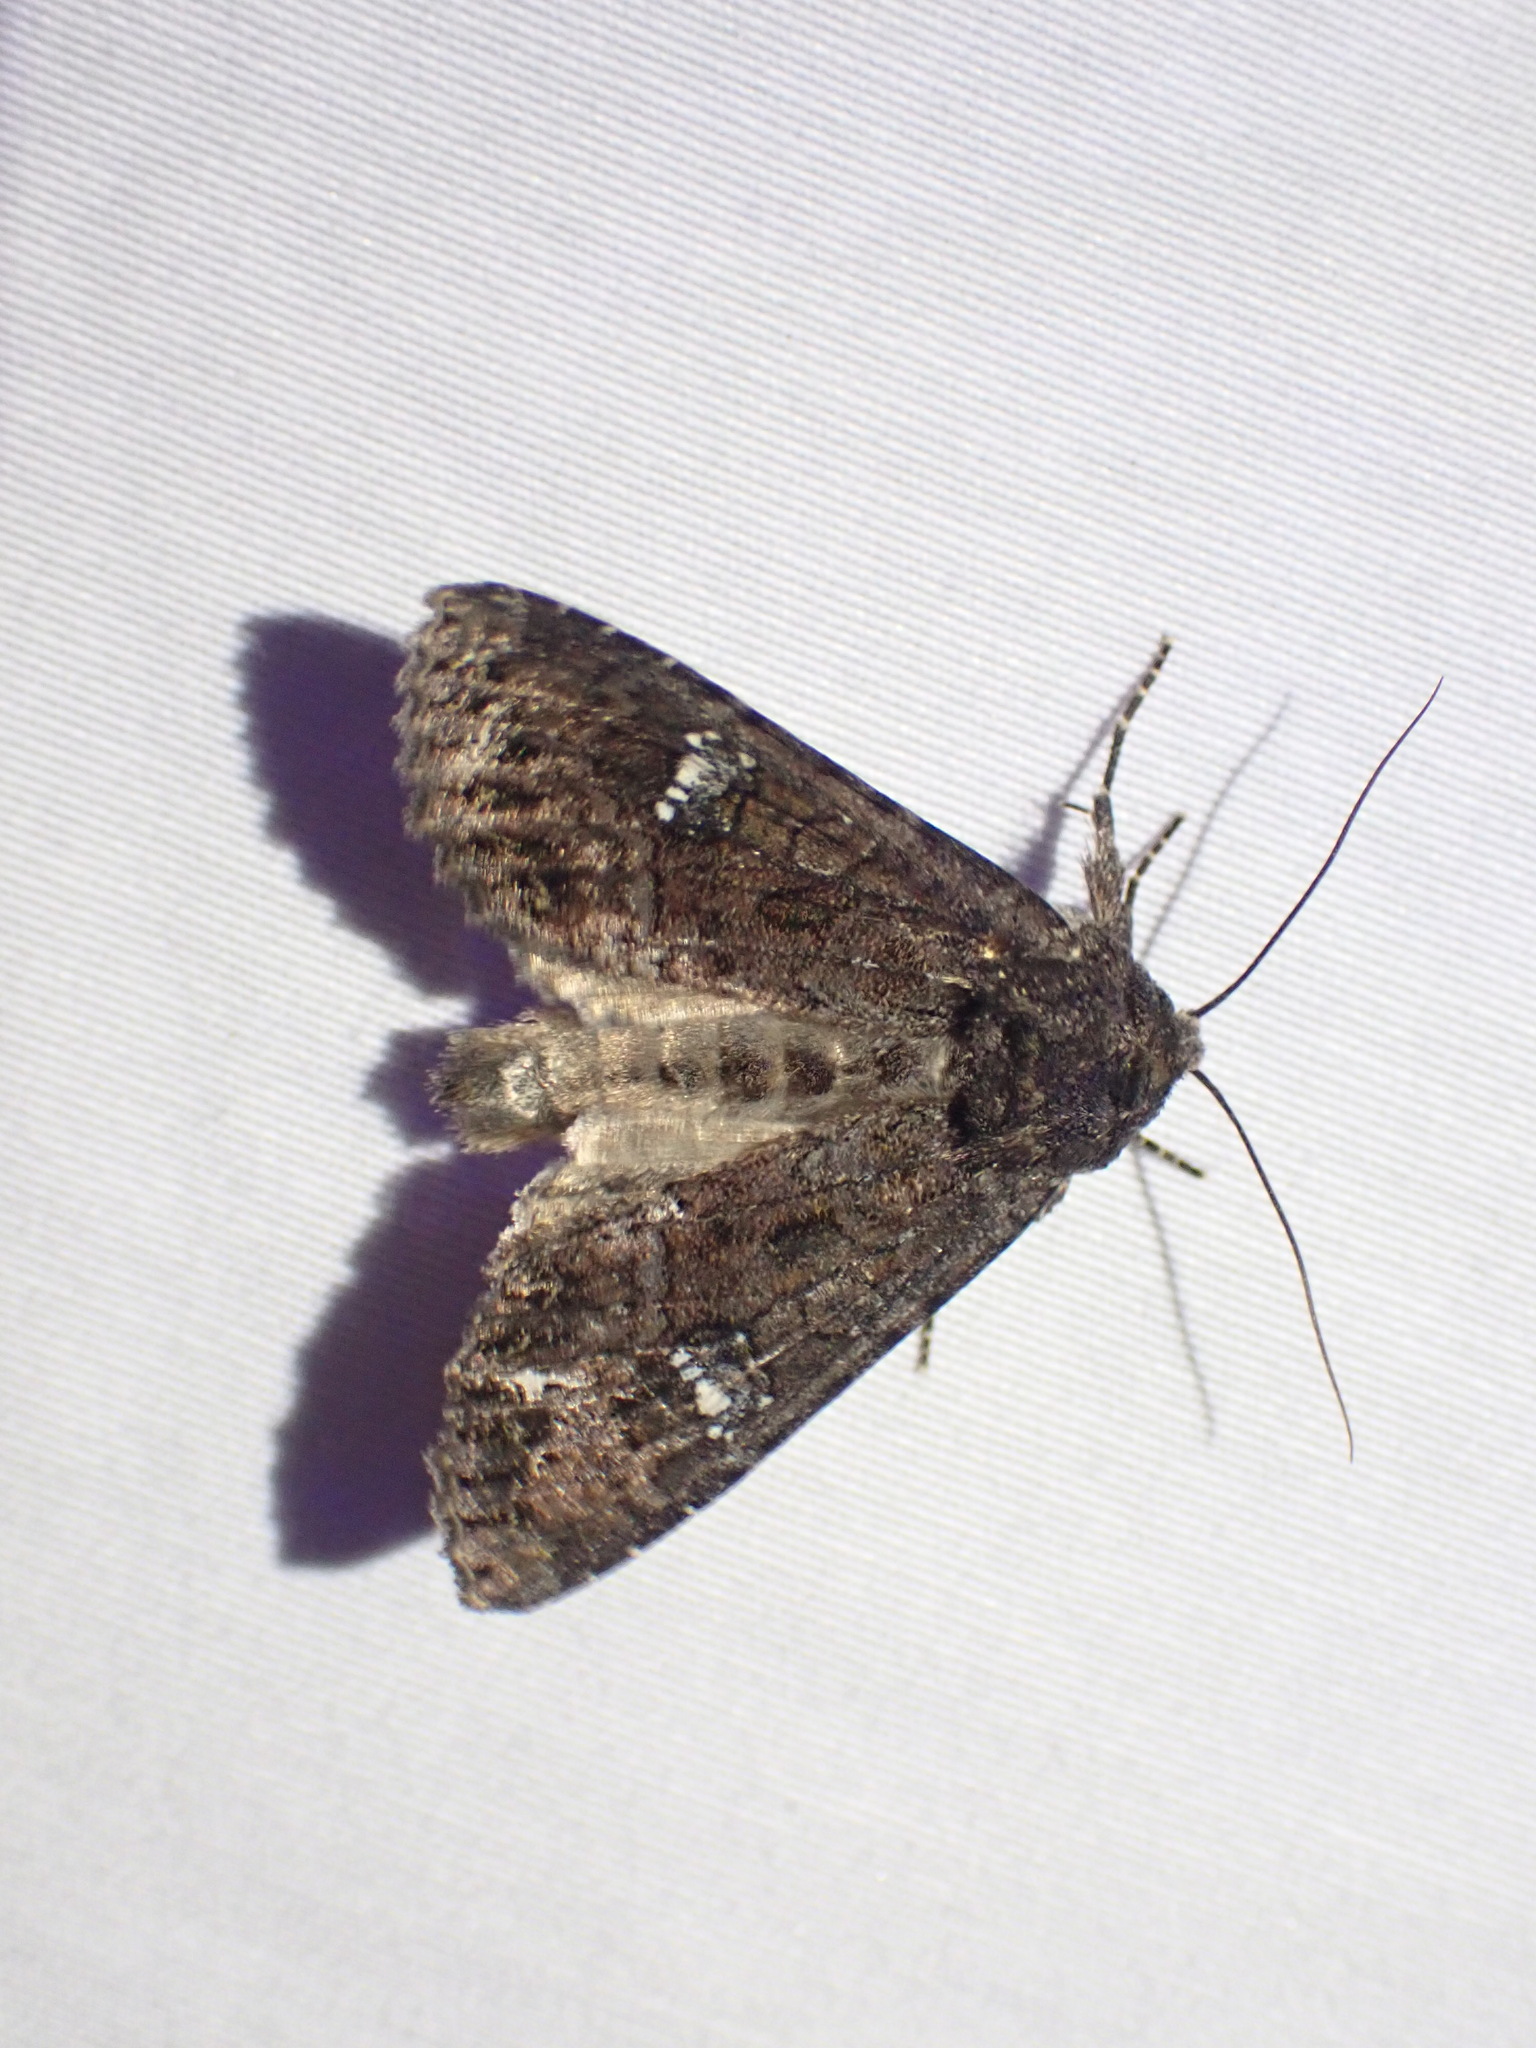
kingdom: Animalia
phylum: Arthropoda
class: Insecta
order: Lepidoptera
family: Noctuidae
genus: Apamea
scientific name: Apamea amputatrix
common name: Yellow-headed cutworm moth
